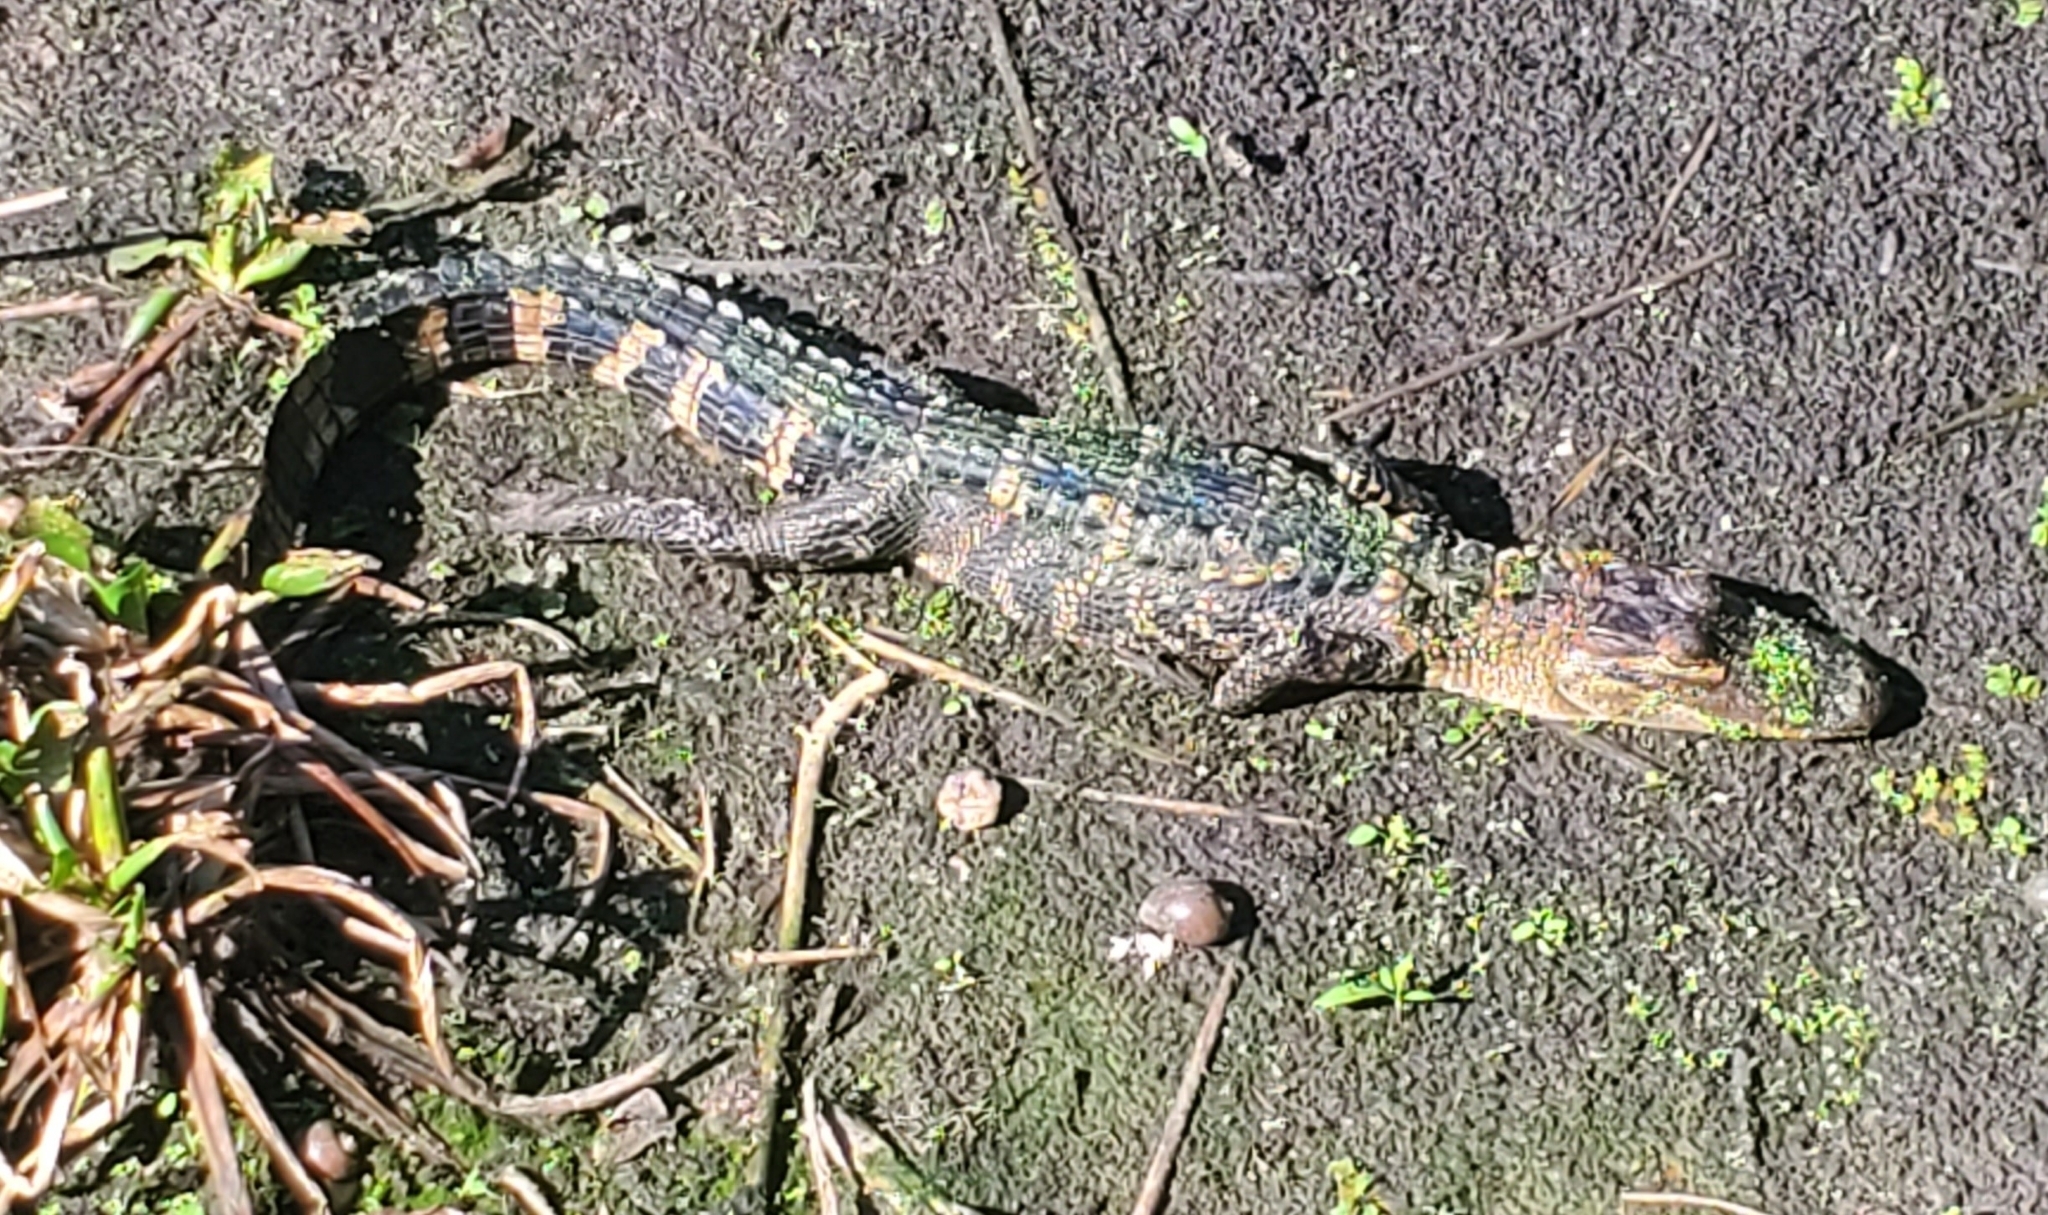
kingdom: Animalia
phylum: Chordata
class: Crocodylia
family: Alligatoridae
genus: Alligator
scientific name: Alligator mississippiensis
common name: American alligator
